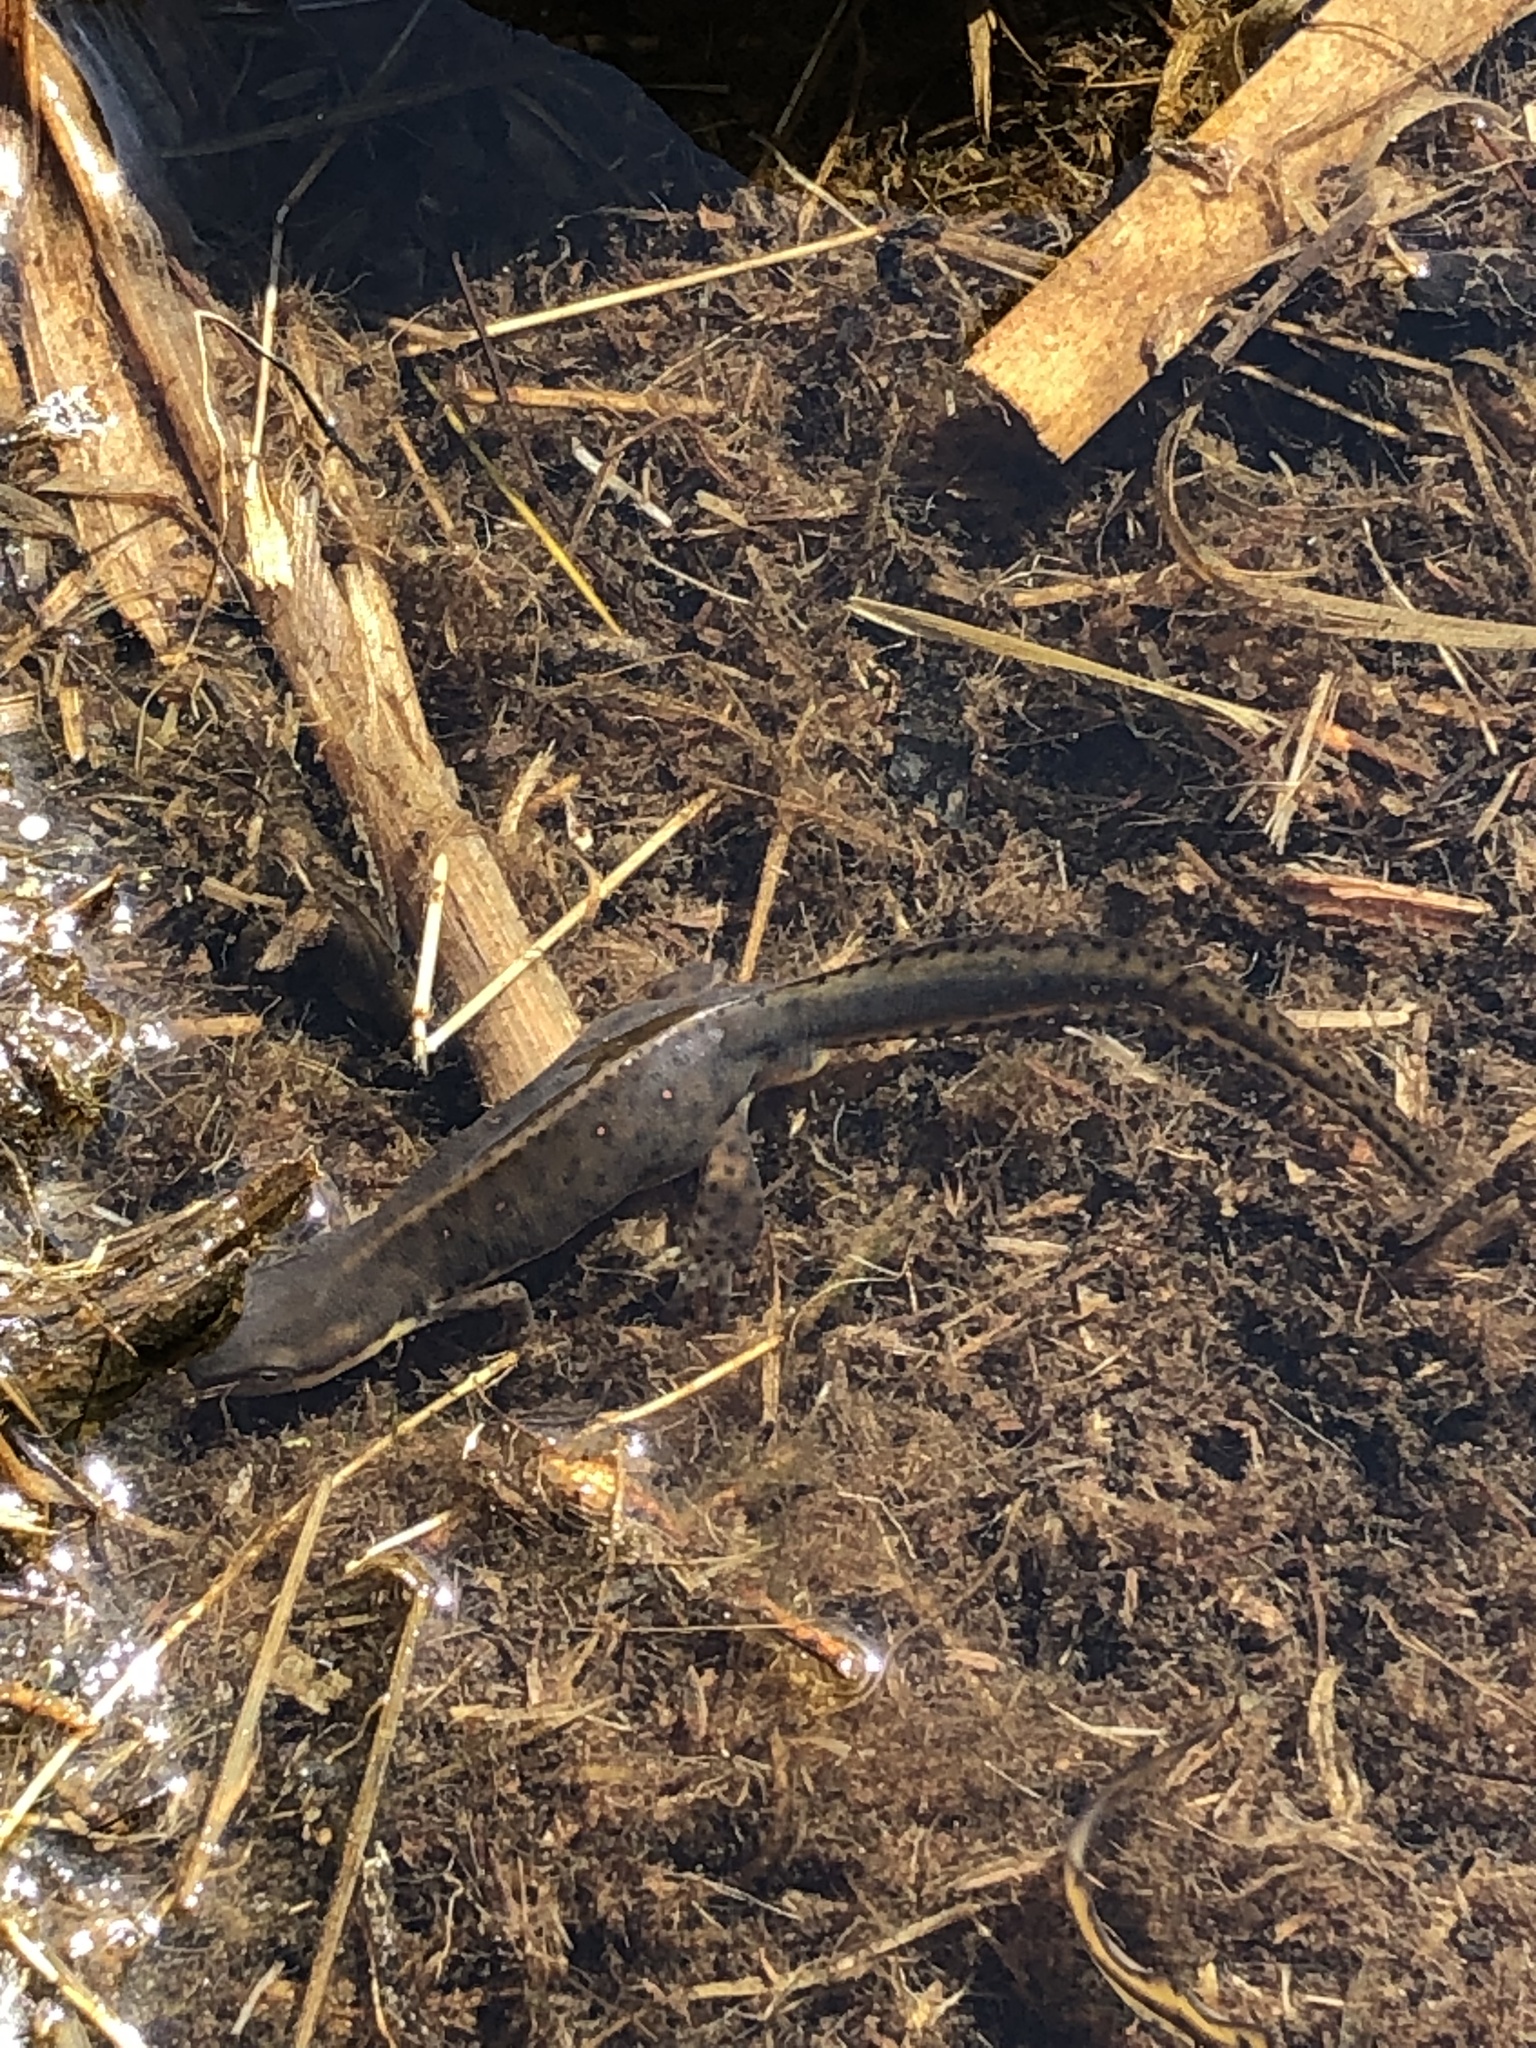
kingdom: Animalia
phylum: Chordata
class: Amphibia
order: Caudata
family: Salamandridae
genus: Notophthalmus
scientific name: Notophthalmus viridescens
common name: Eastern newt
